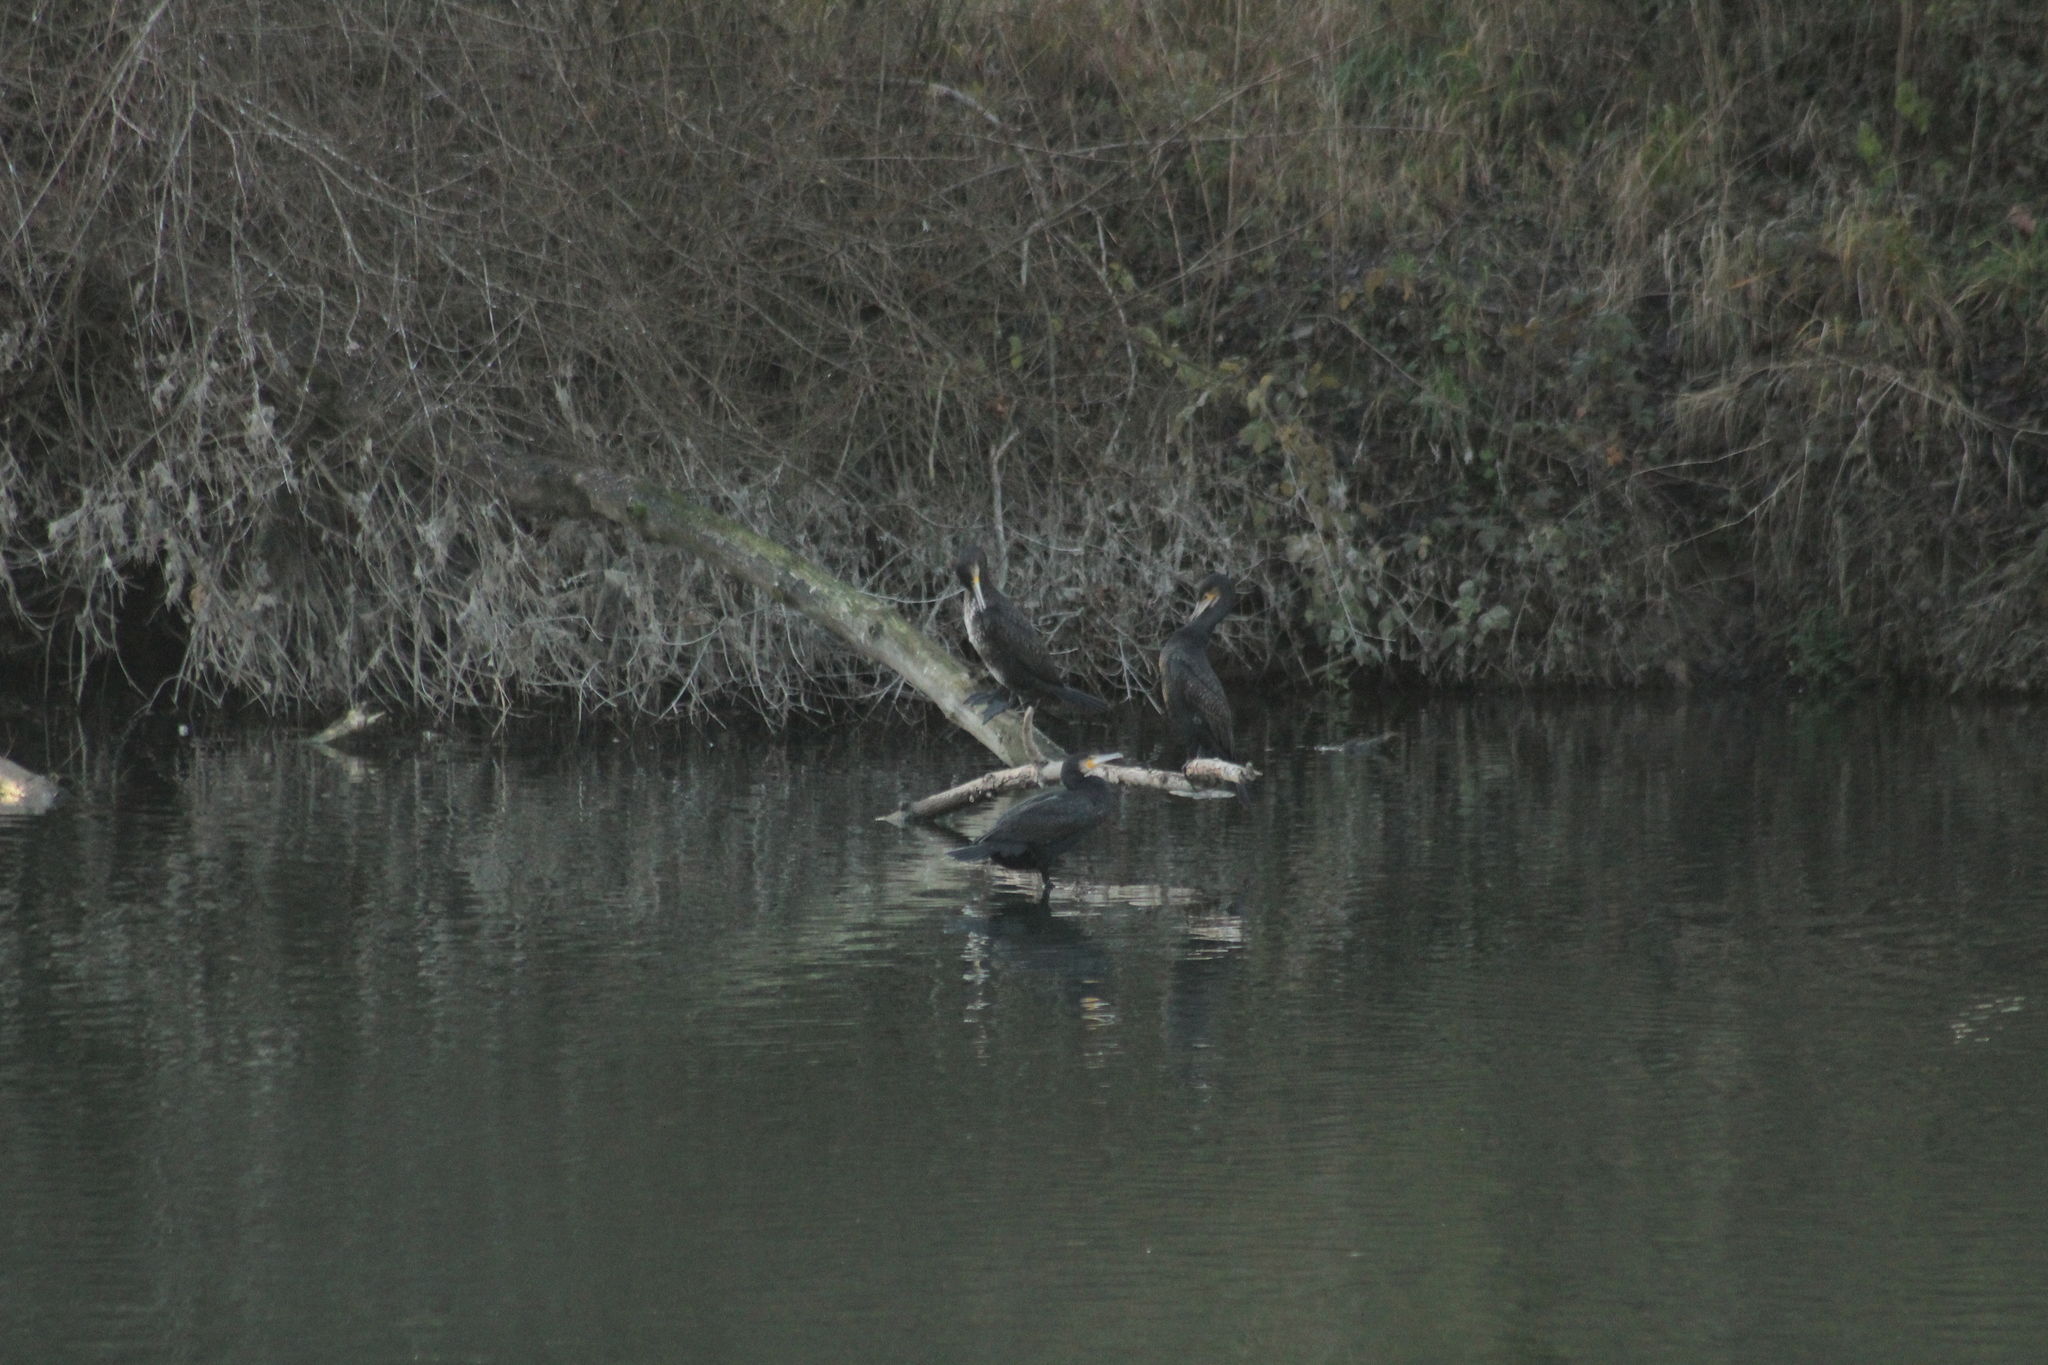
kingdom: Animalia
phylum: Chordata
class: Aves
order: Suliformes
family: Phalacrocoracidae
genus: Phalacrocorax
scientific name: Phalacrocorax carbo
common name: Great cormorant
